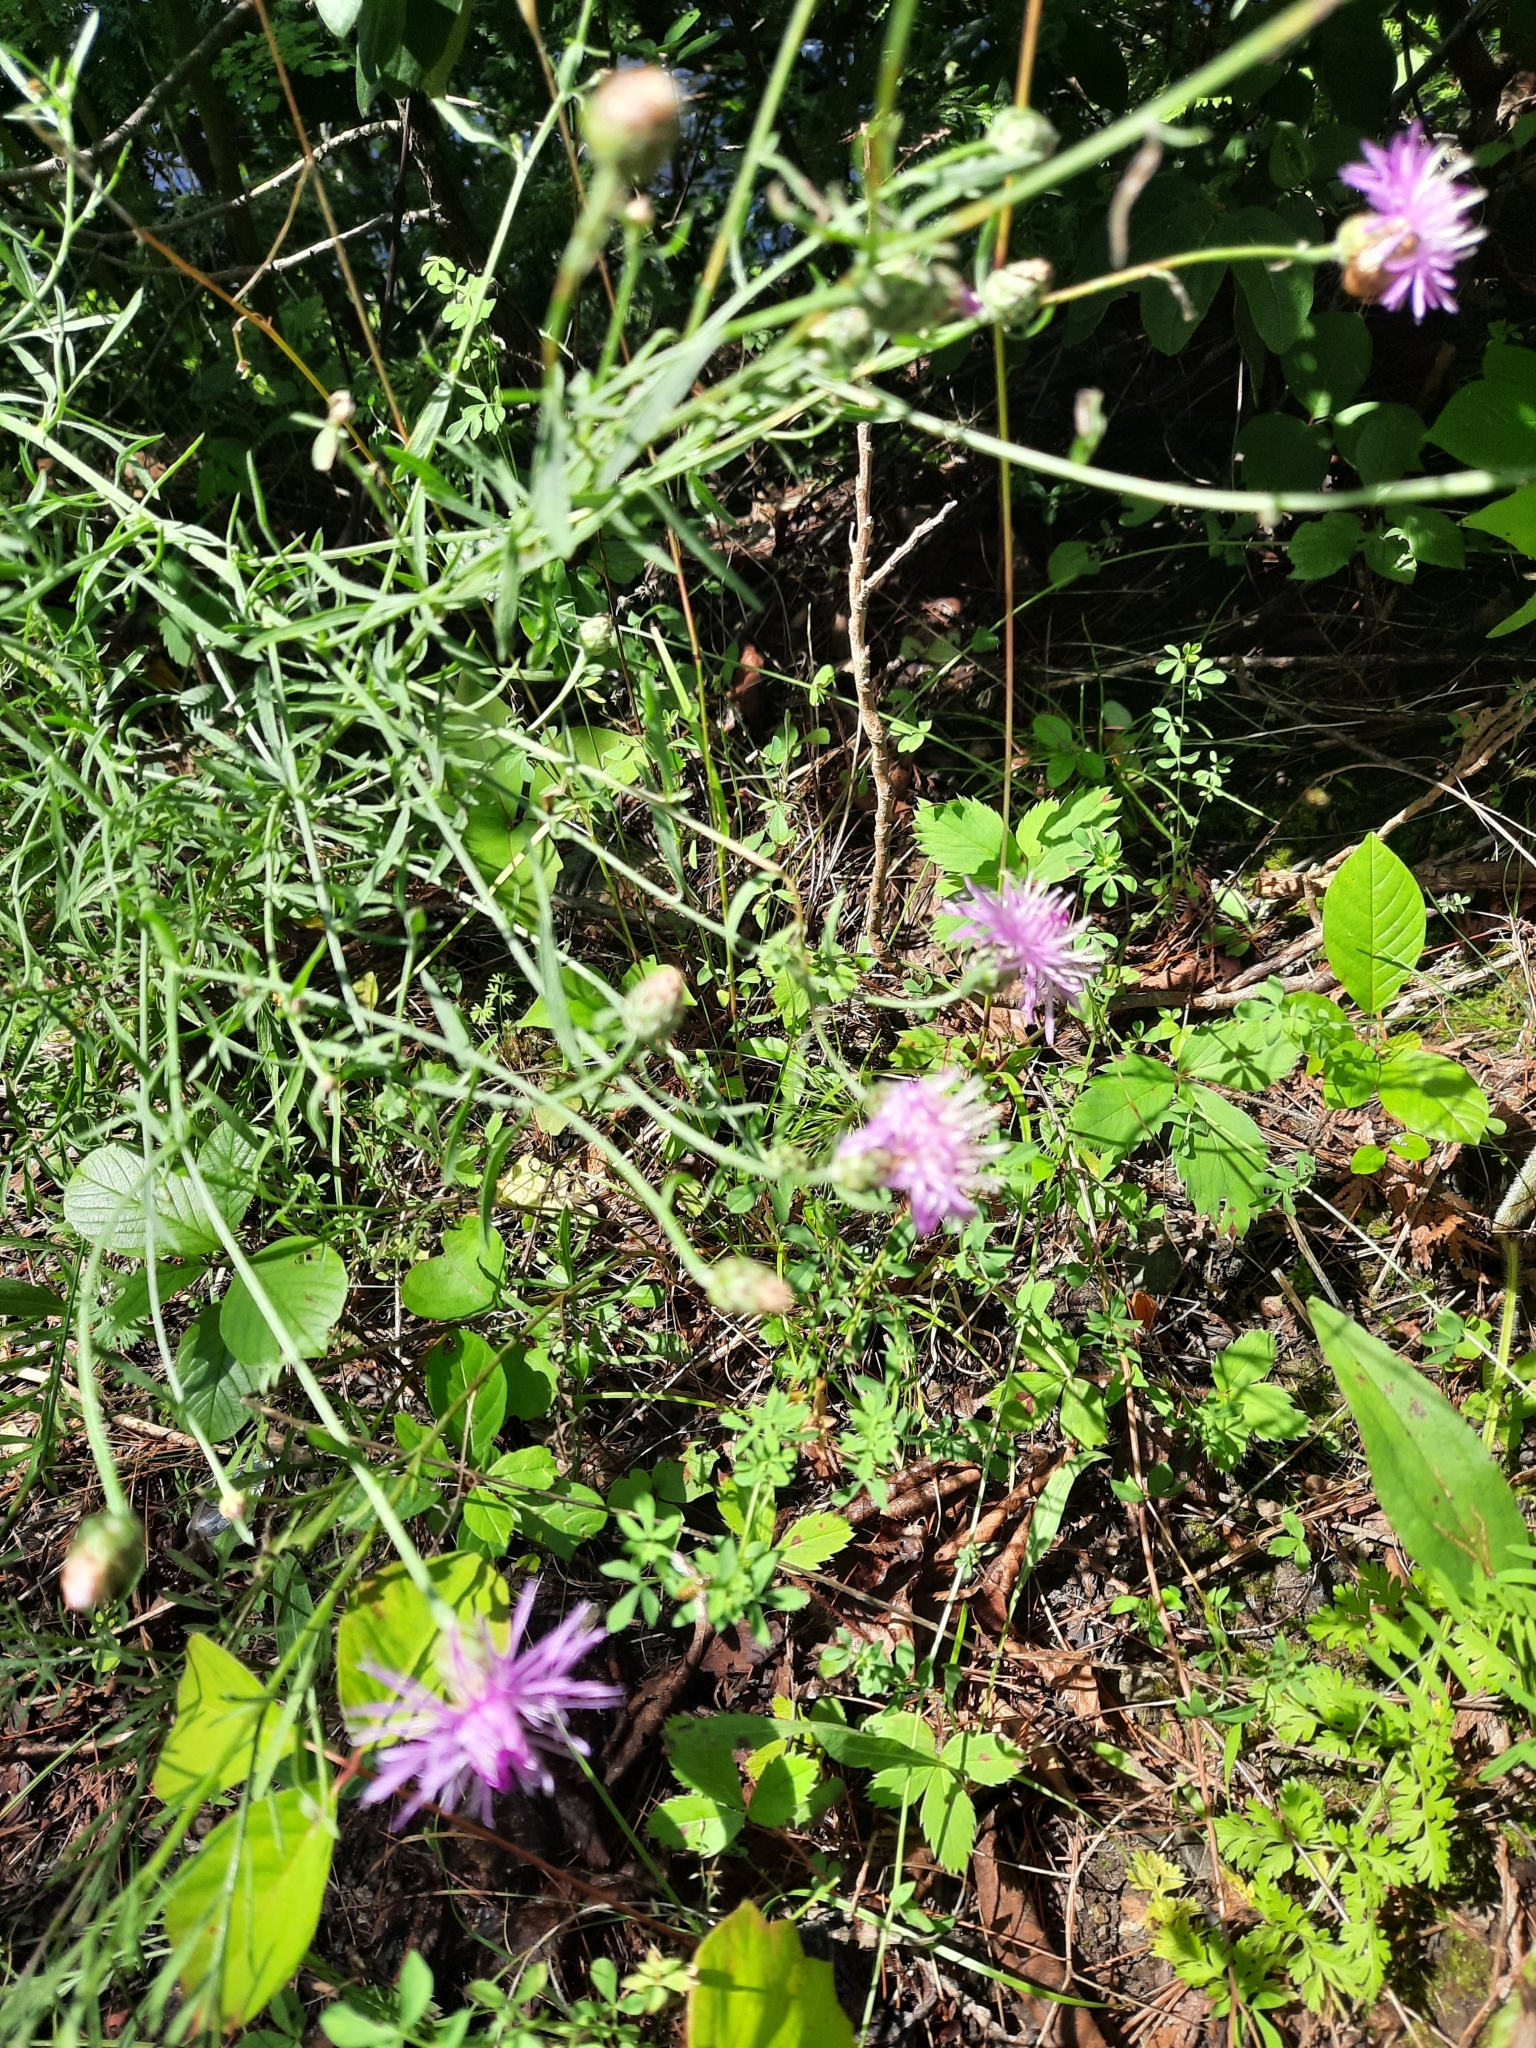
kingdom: Plantae
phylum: Tracheophyta
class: Magnoliopsida
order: Asterales
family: Asteraceae
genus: Centaurea
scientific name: Centaurea stoebe
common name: Spotted knapweed
